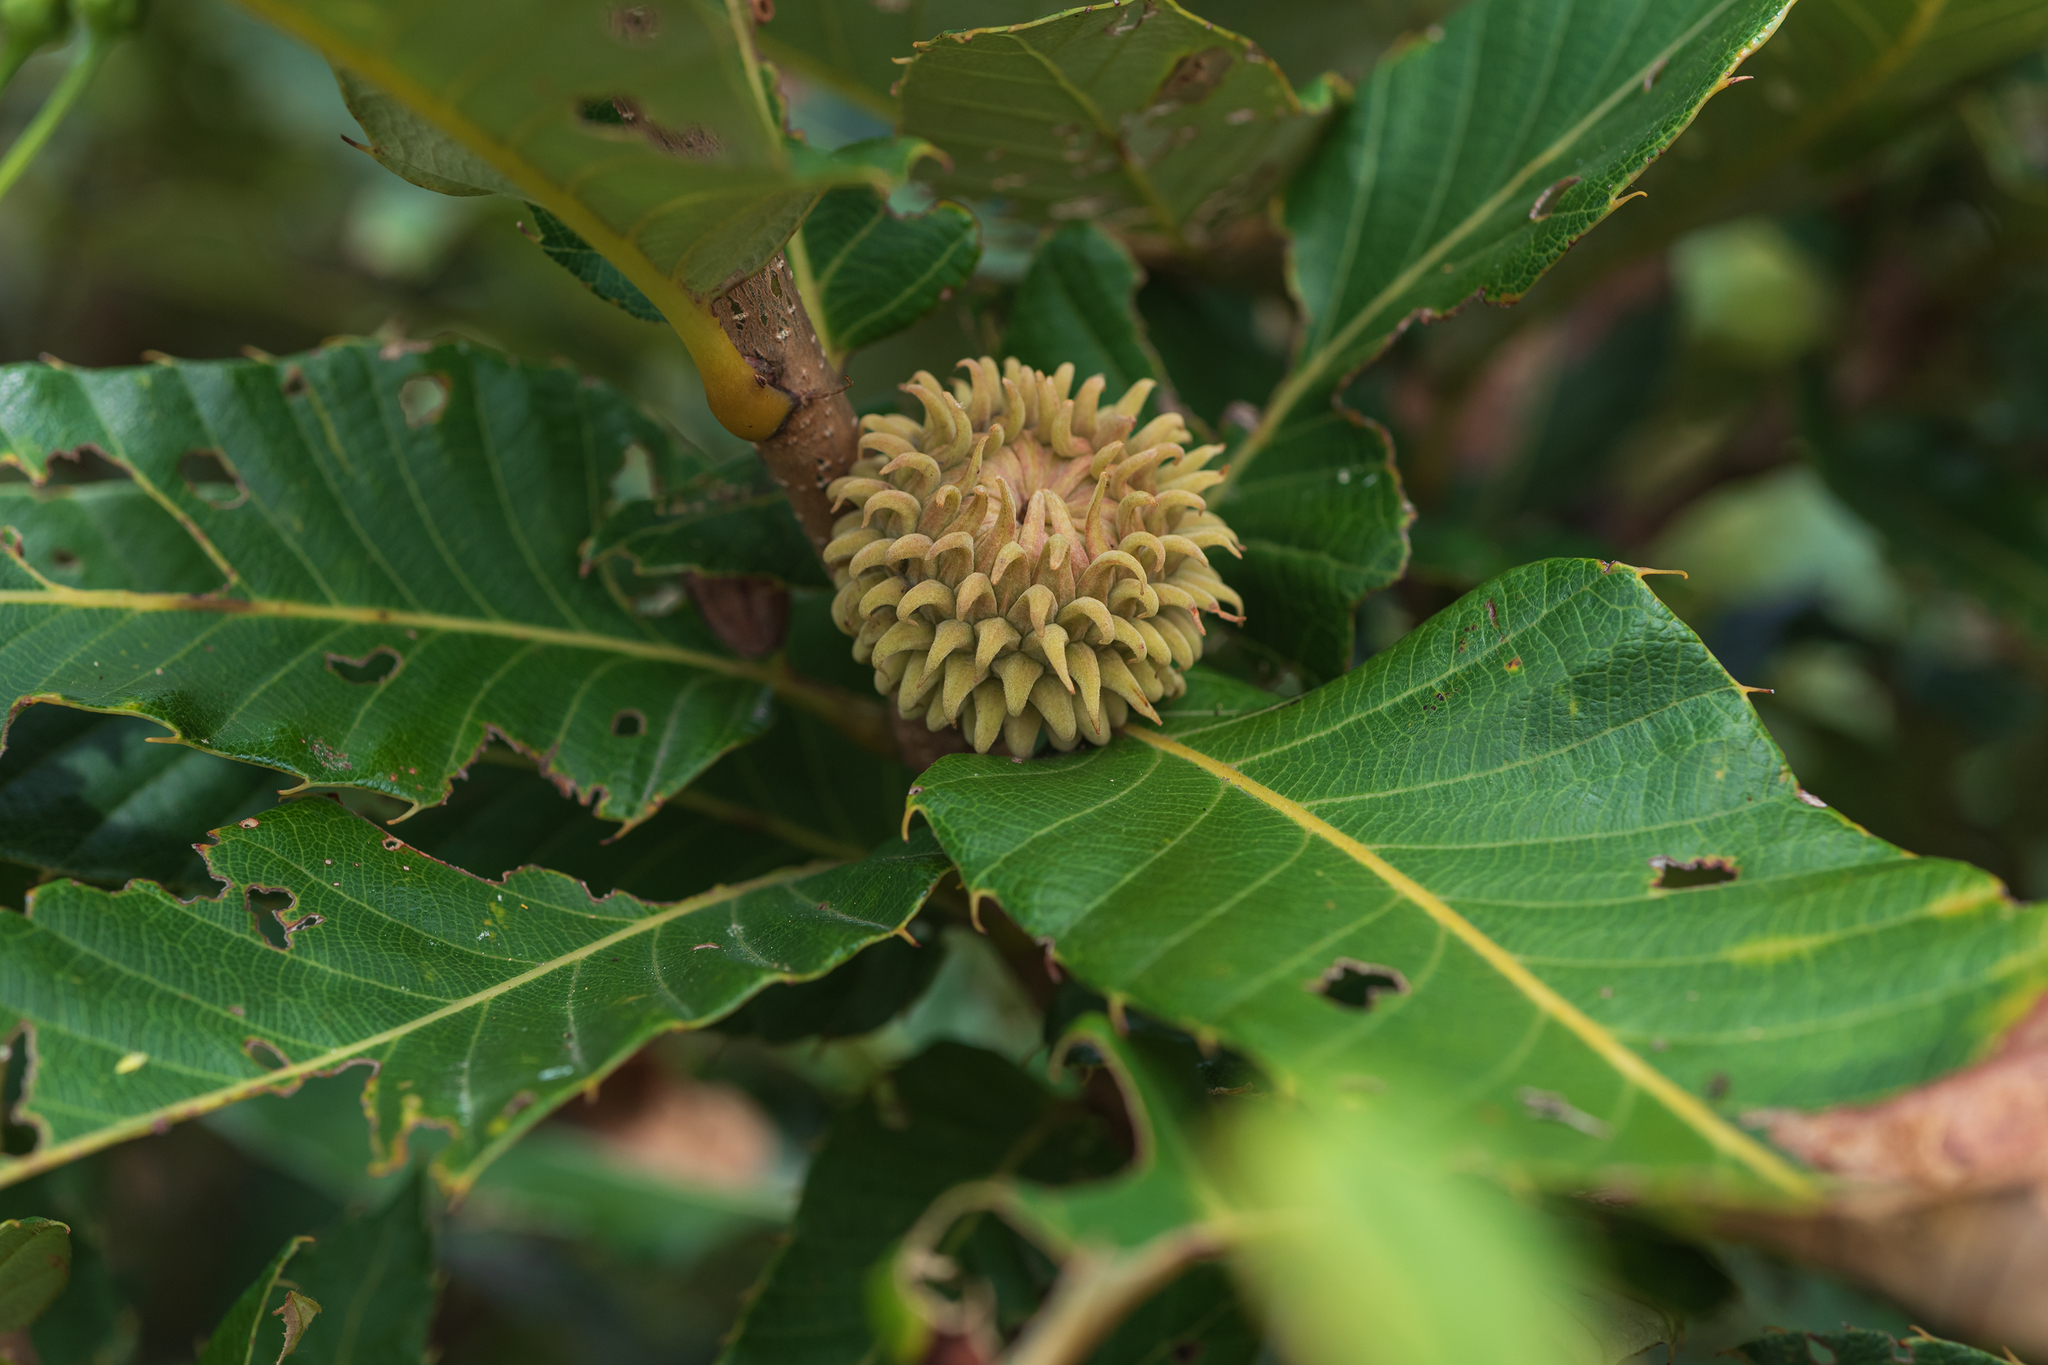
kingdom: Plantae
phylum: Tracheophyta
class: Magnoliopsida
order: Fagales
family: Fagaceae
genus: Quercus
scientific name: Quercus variabilis
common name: Chinese cork oak
